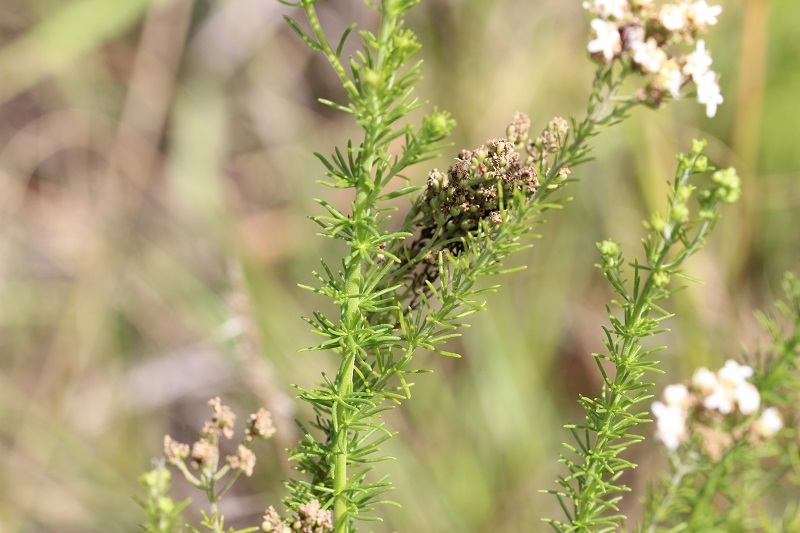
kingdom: Plantae
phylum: Tracheophyta
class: Magnoliopsida
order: Lamiales
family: Scrophulariaceae
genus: Selago
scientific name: Selago corymbosa
